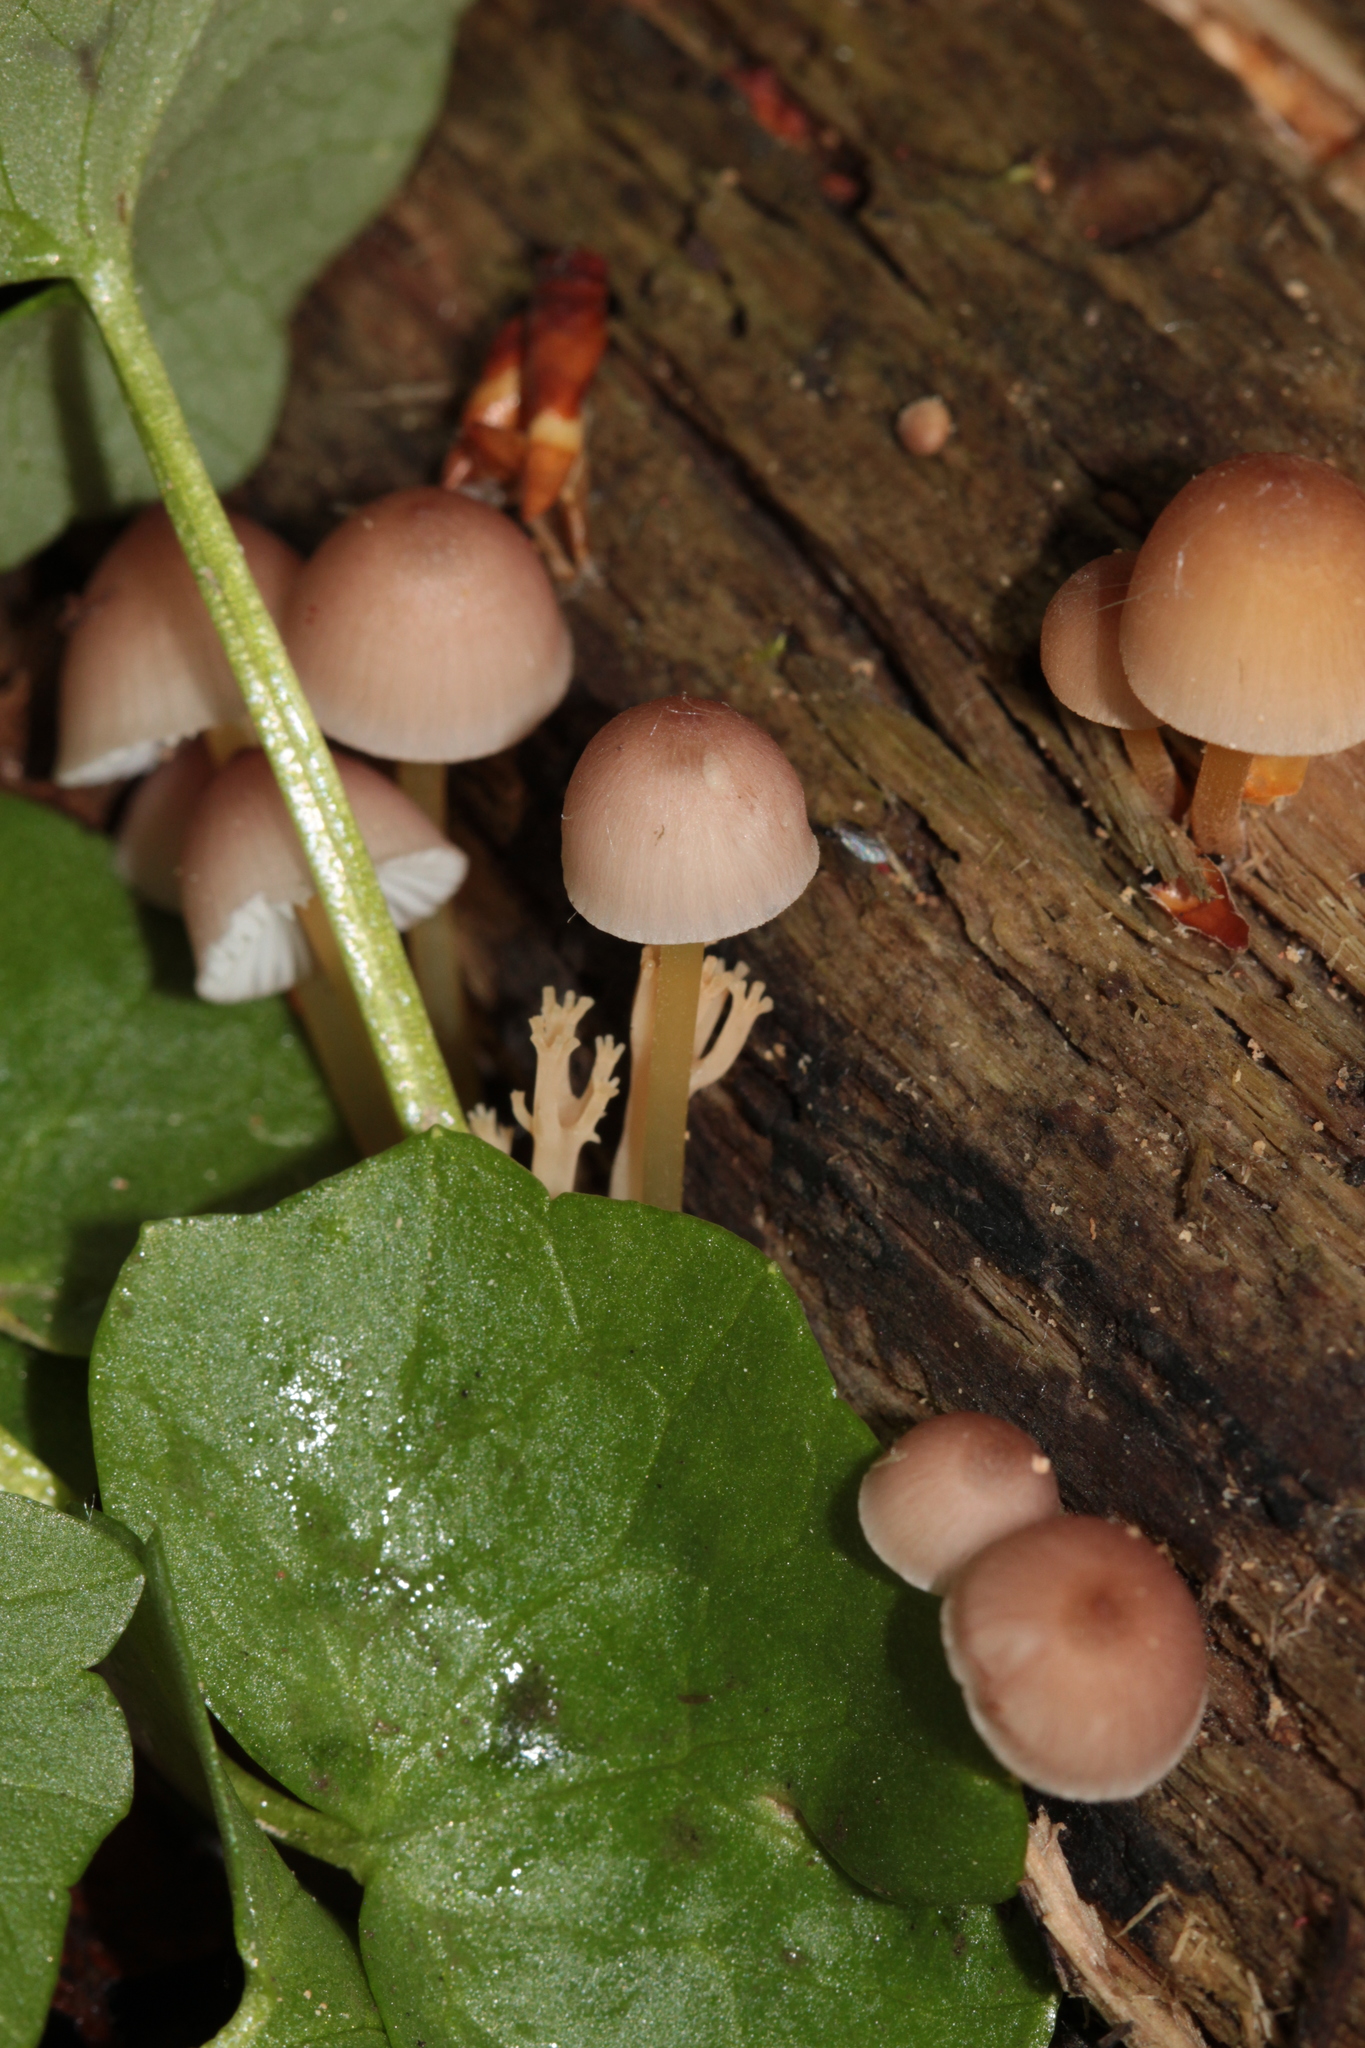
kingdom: Fungi
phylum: Basidiomycota
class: Agaricomycetes
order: Agaricales
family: Mycenaceae
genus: Mycena
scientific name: Mycena renati
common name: Beautiful bonnet
